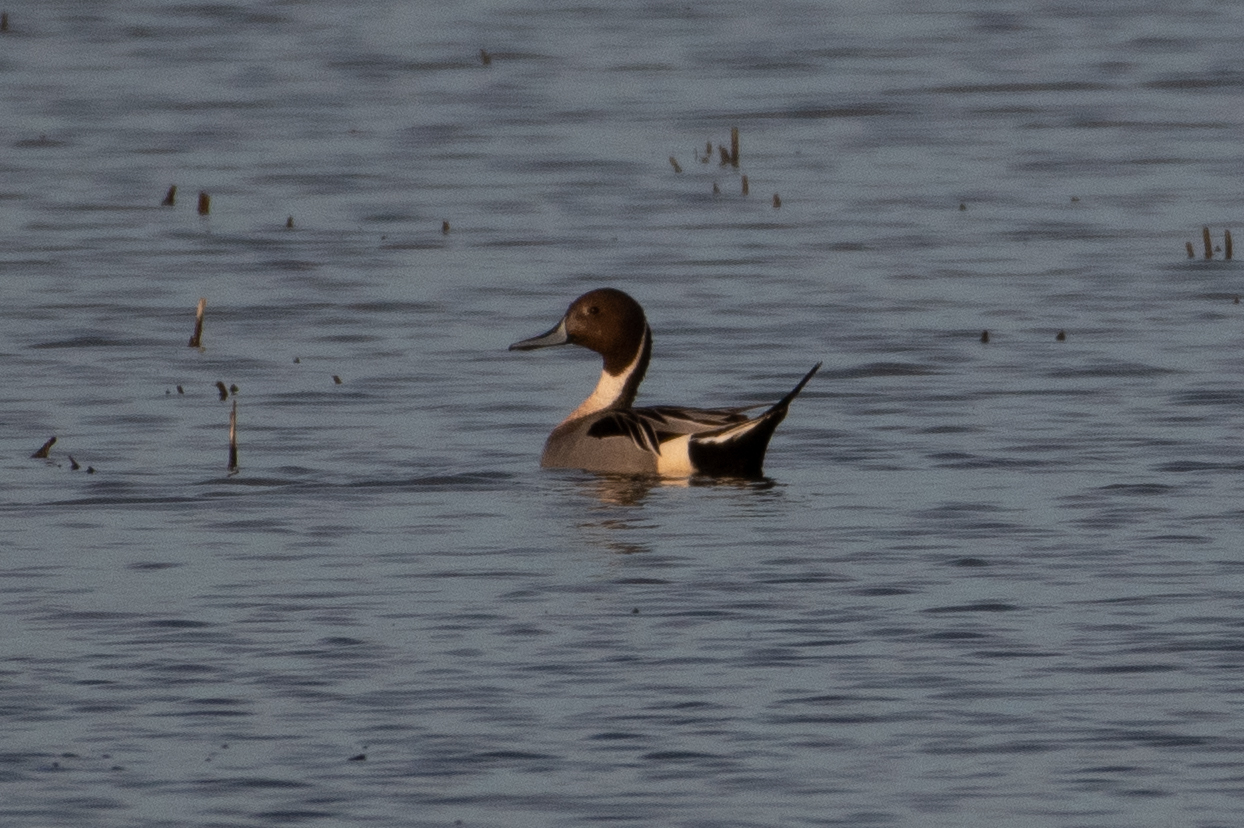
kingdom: Animalia
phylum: Chordata
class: Aves
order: Anseriformes
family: Anatidae
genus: Anas
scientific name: Anas acuta
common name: Northern pintail
